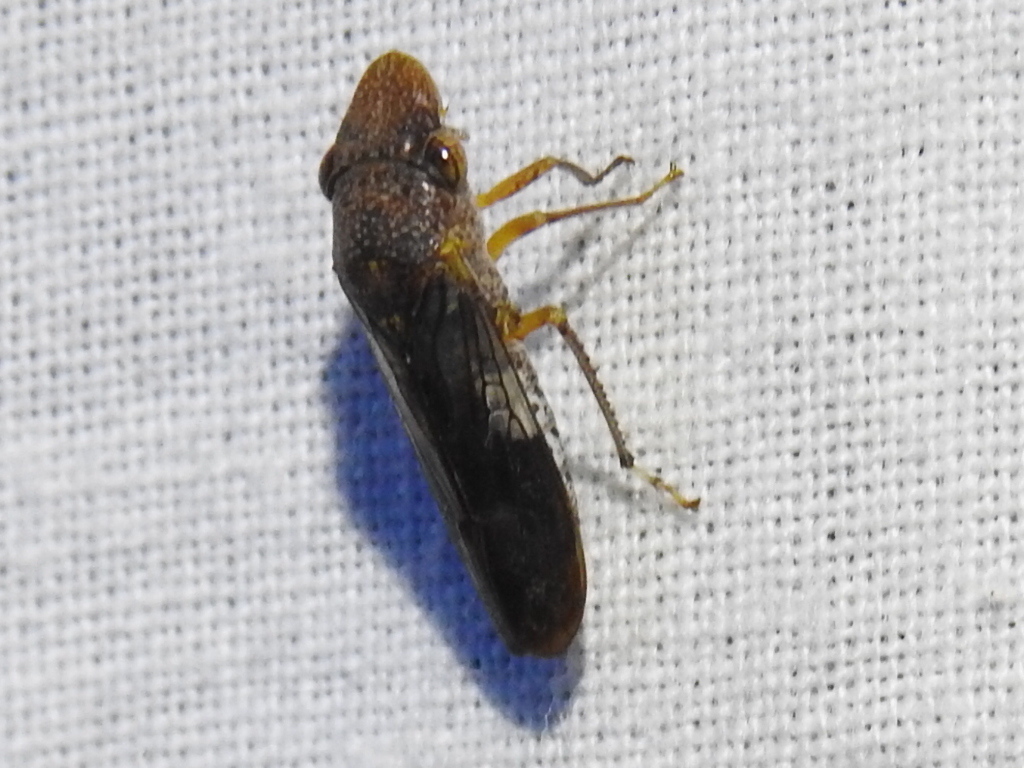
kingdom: Animalia
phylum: Arthropoda
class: Insecta
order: Hemiptera
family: Cicadellidae
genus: Homalodisca
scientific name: Homalodisca vitripennis
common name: Glassy-winged sharpshooter
